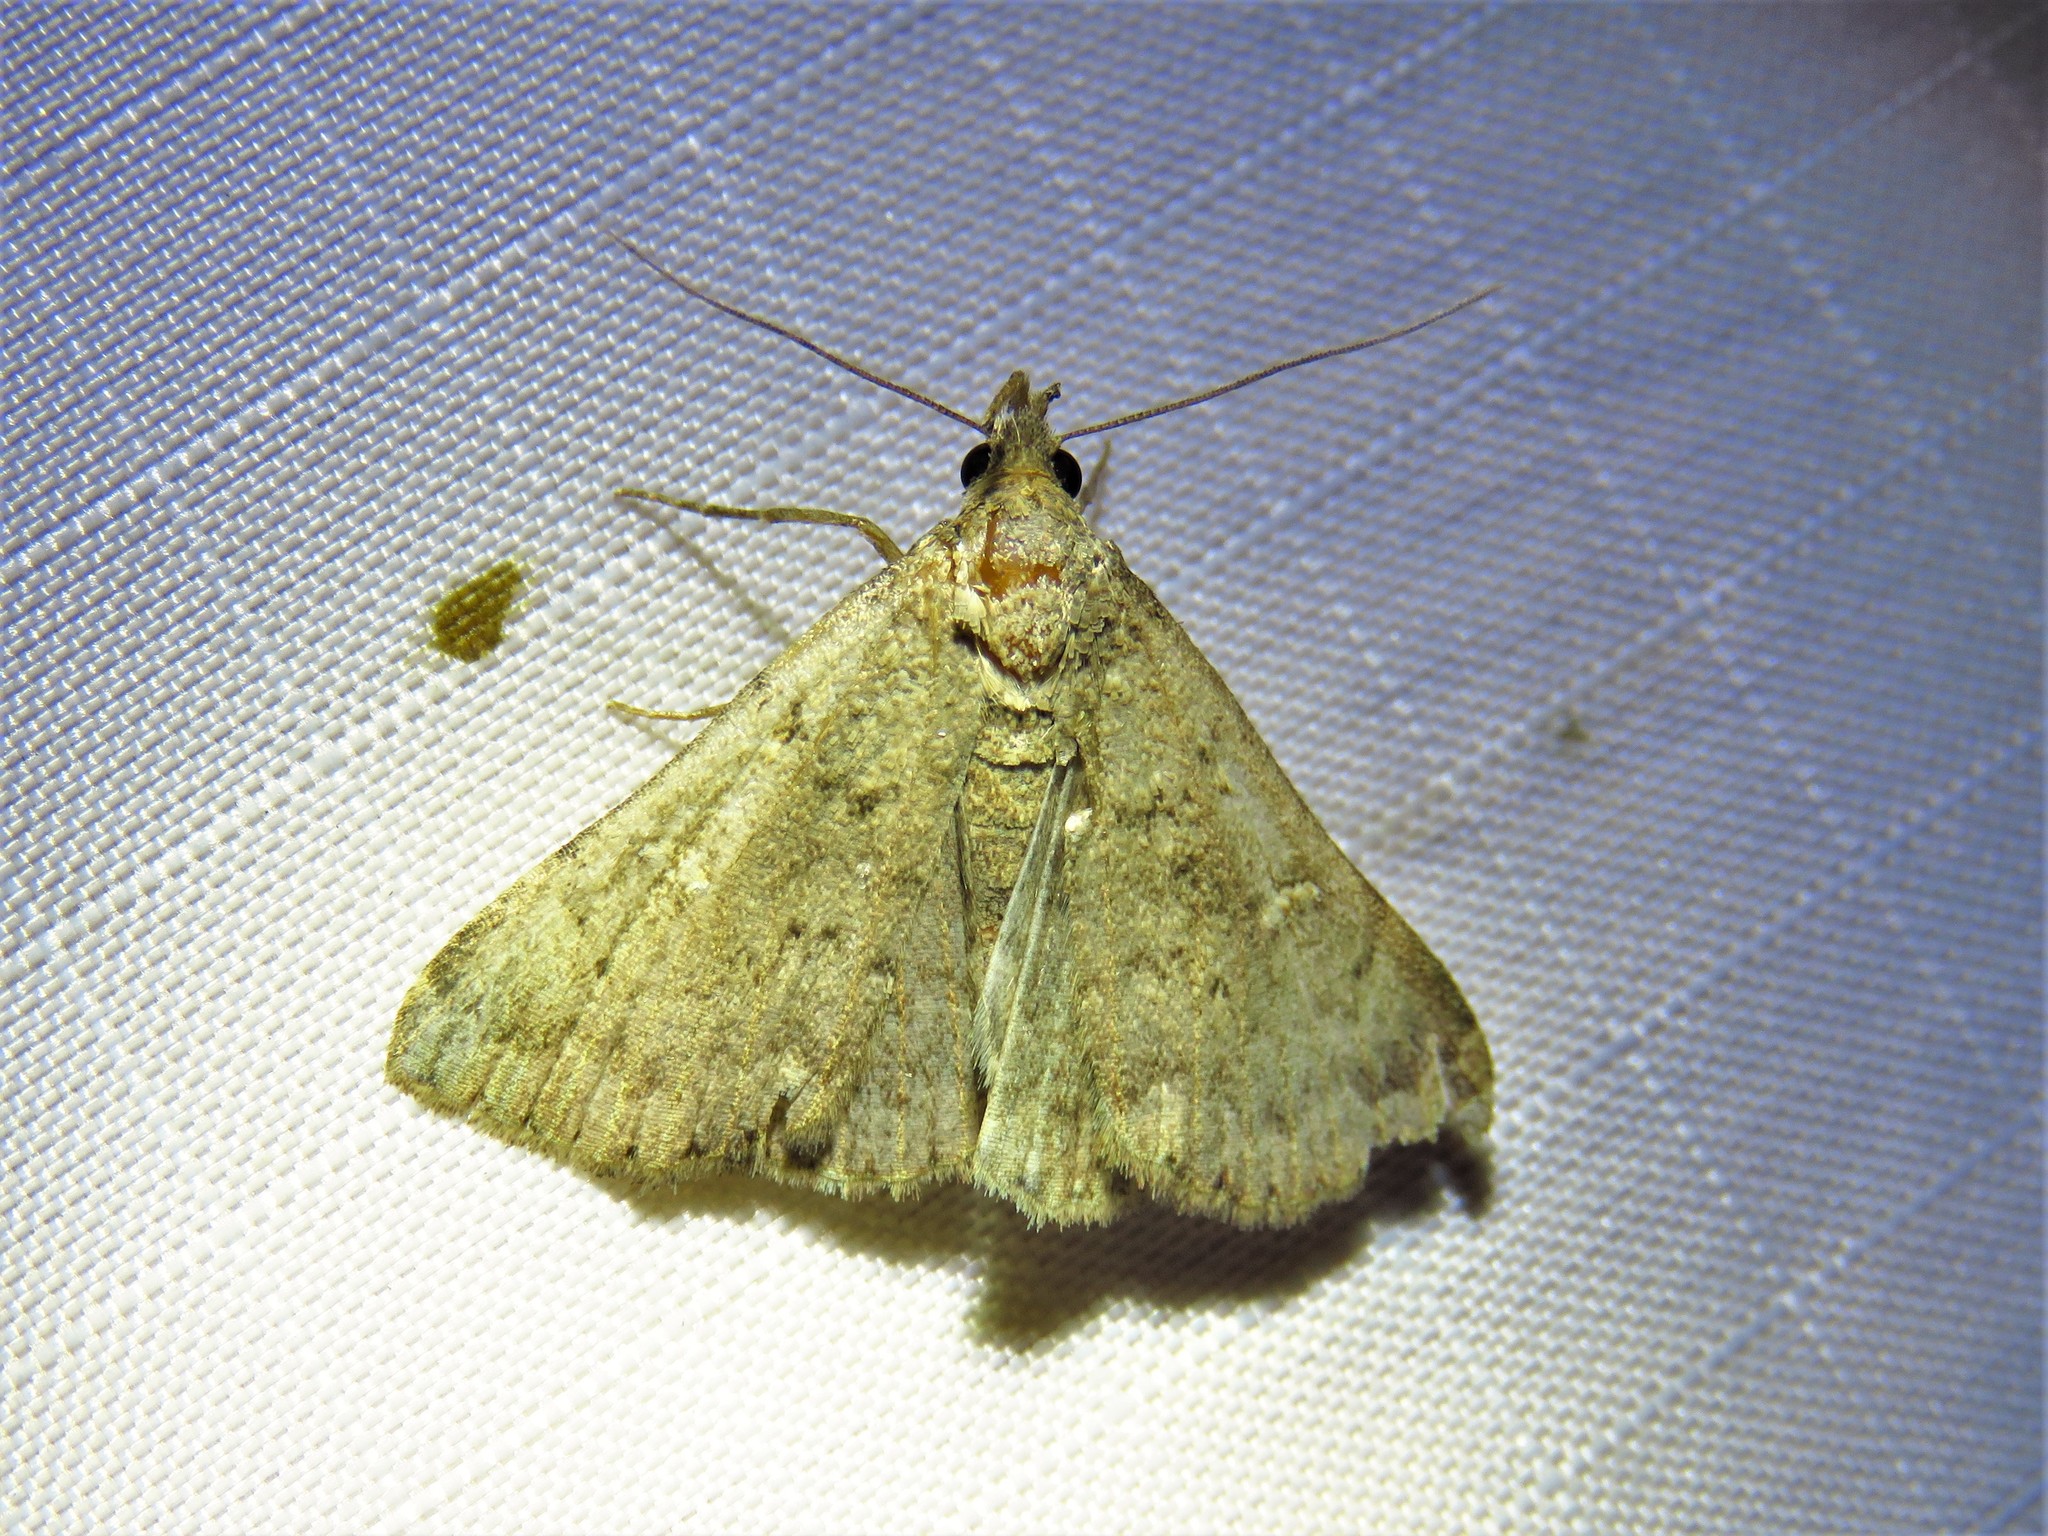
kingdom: Animalia
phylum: Arthropoda
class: Insecta
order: Lepidoptera
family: Erebidae
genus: Hypenula
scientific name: Hypenula cacuminalis
